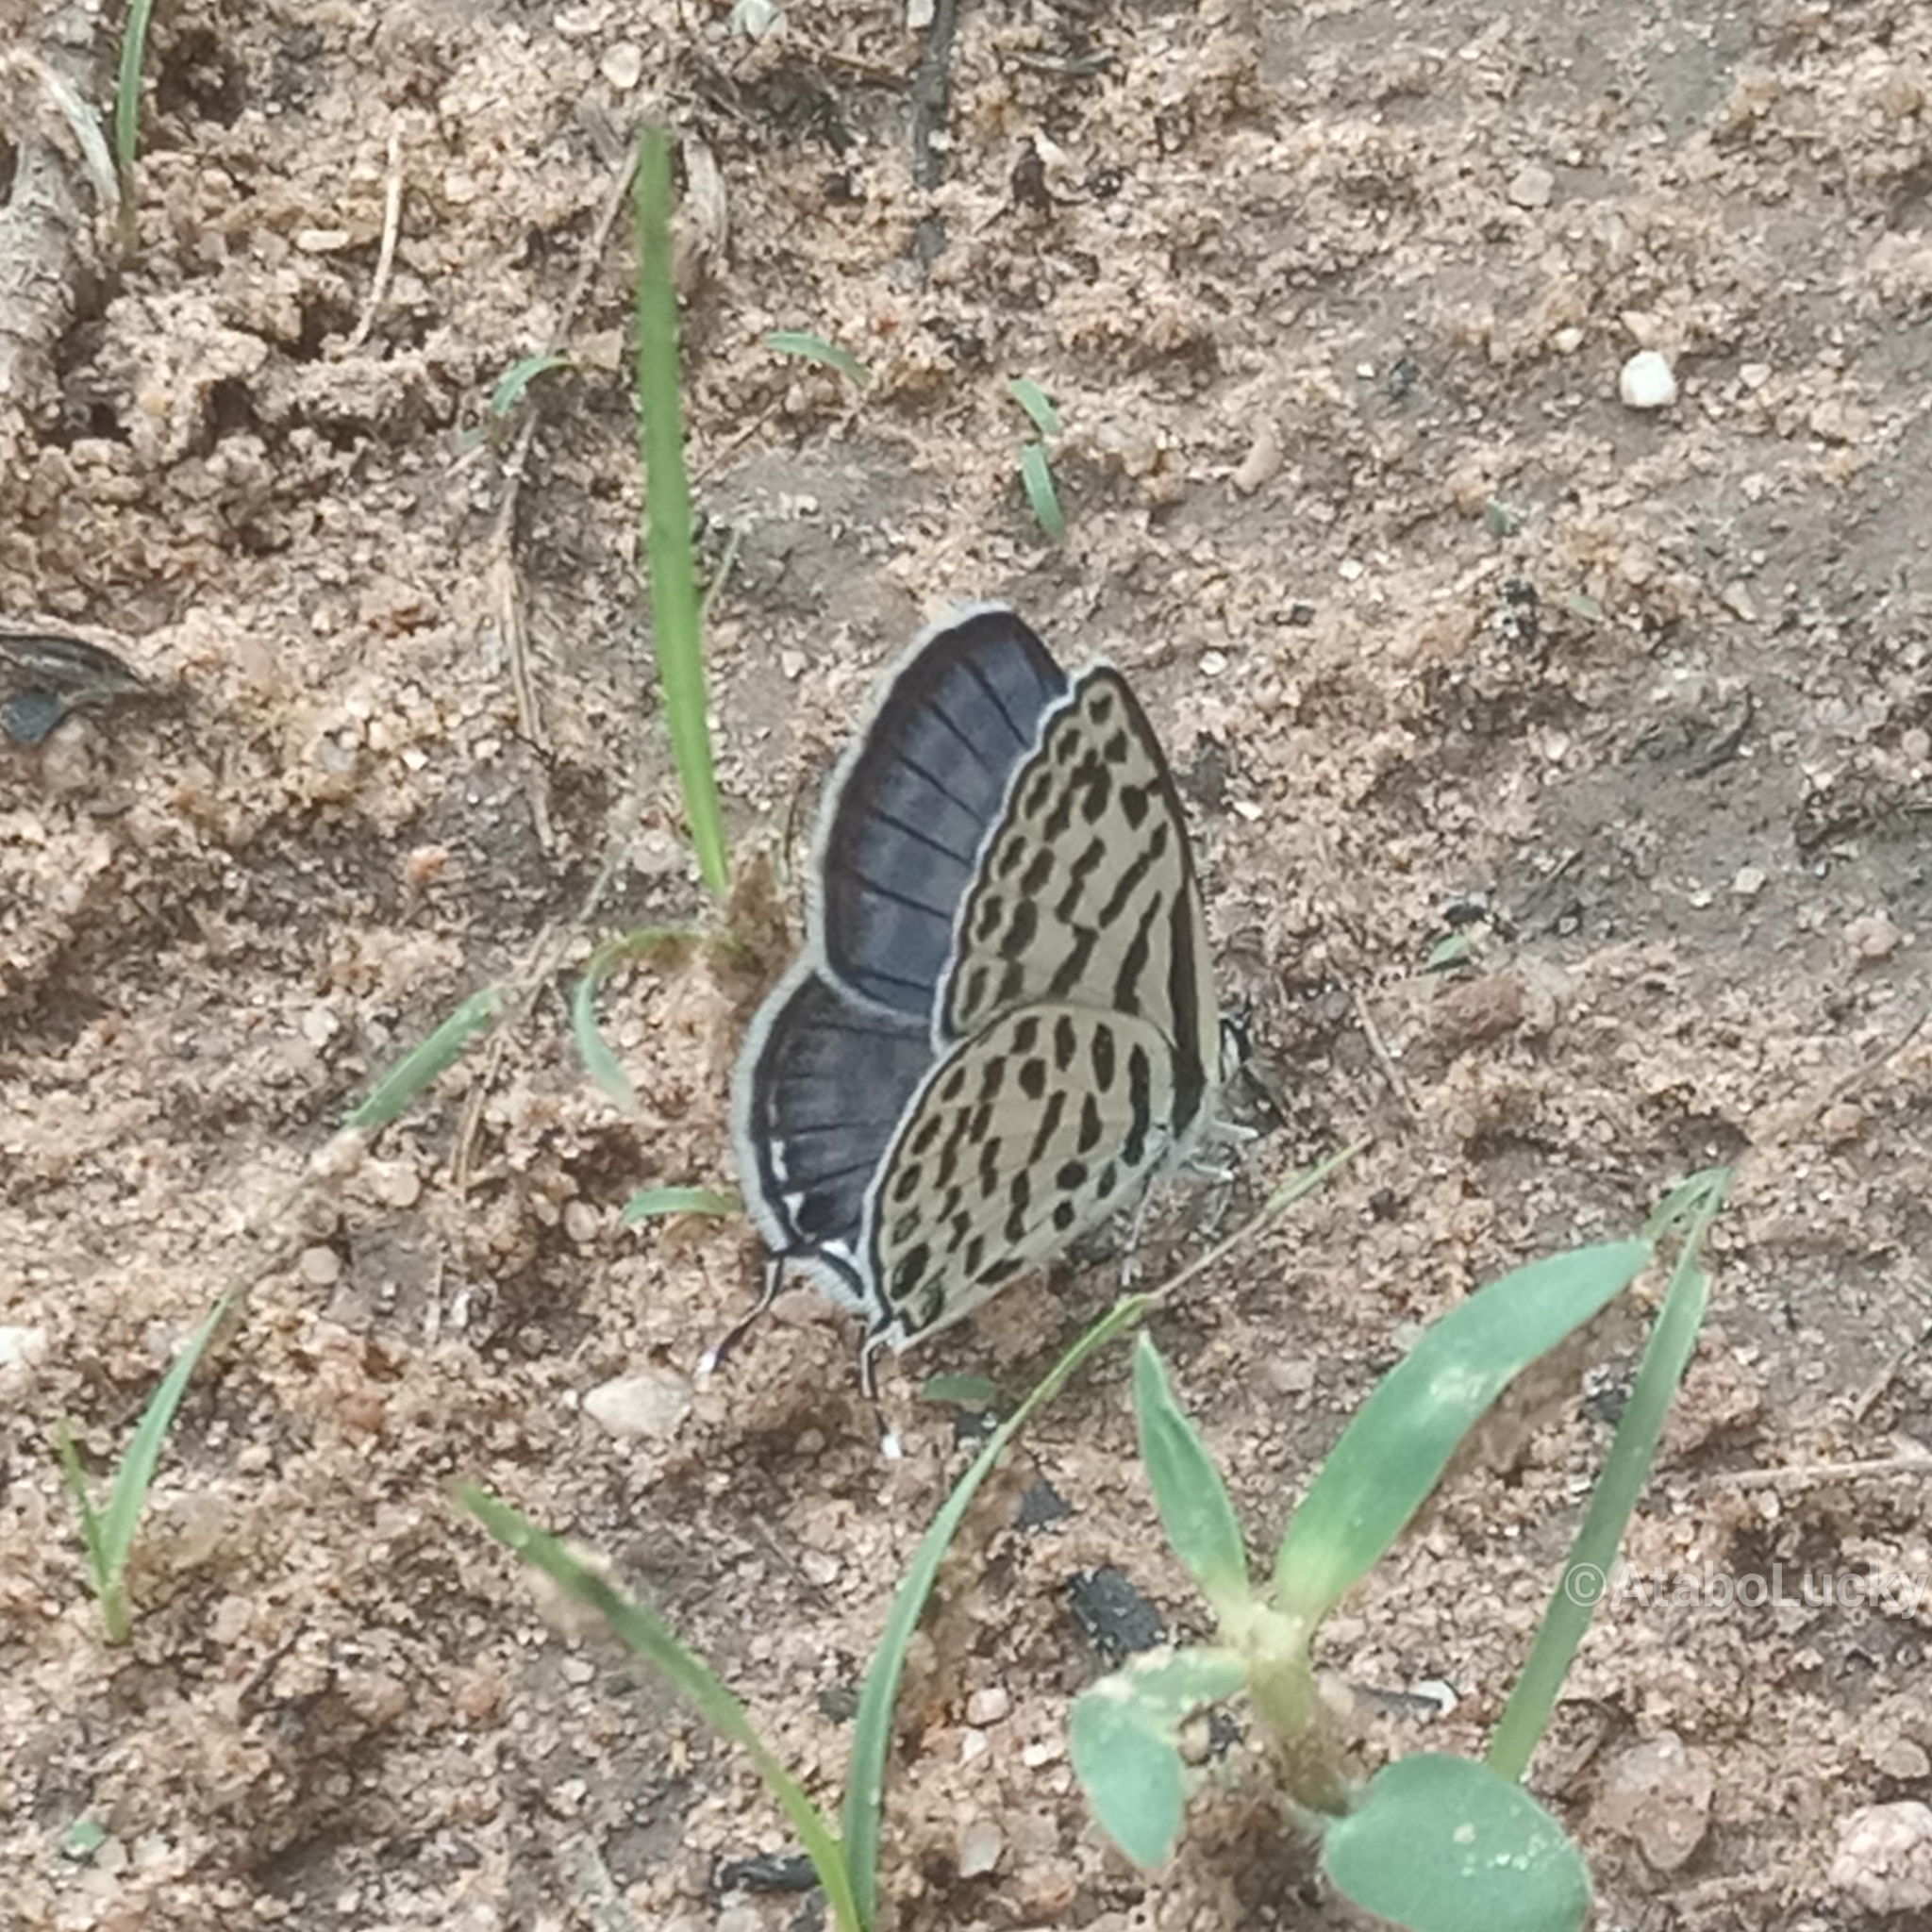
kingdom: Animalia
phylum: Arthropoda
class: Insecta
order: Lepidoptera
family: Lycaenidae
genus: Tarucus
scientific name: Tarucus theophrastus
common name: Common tiger blue
